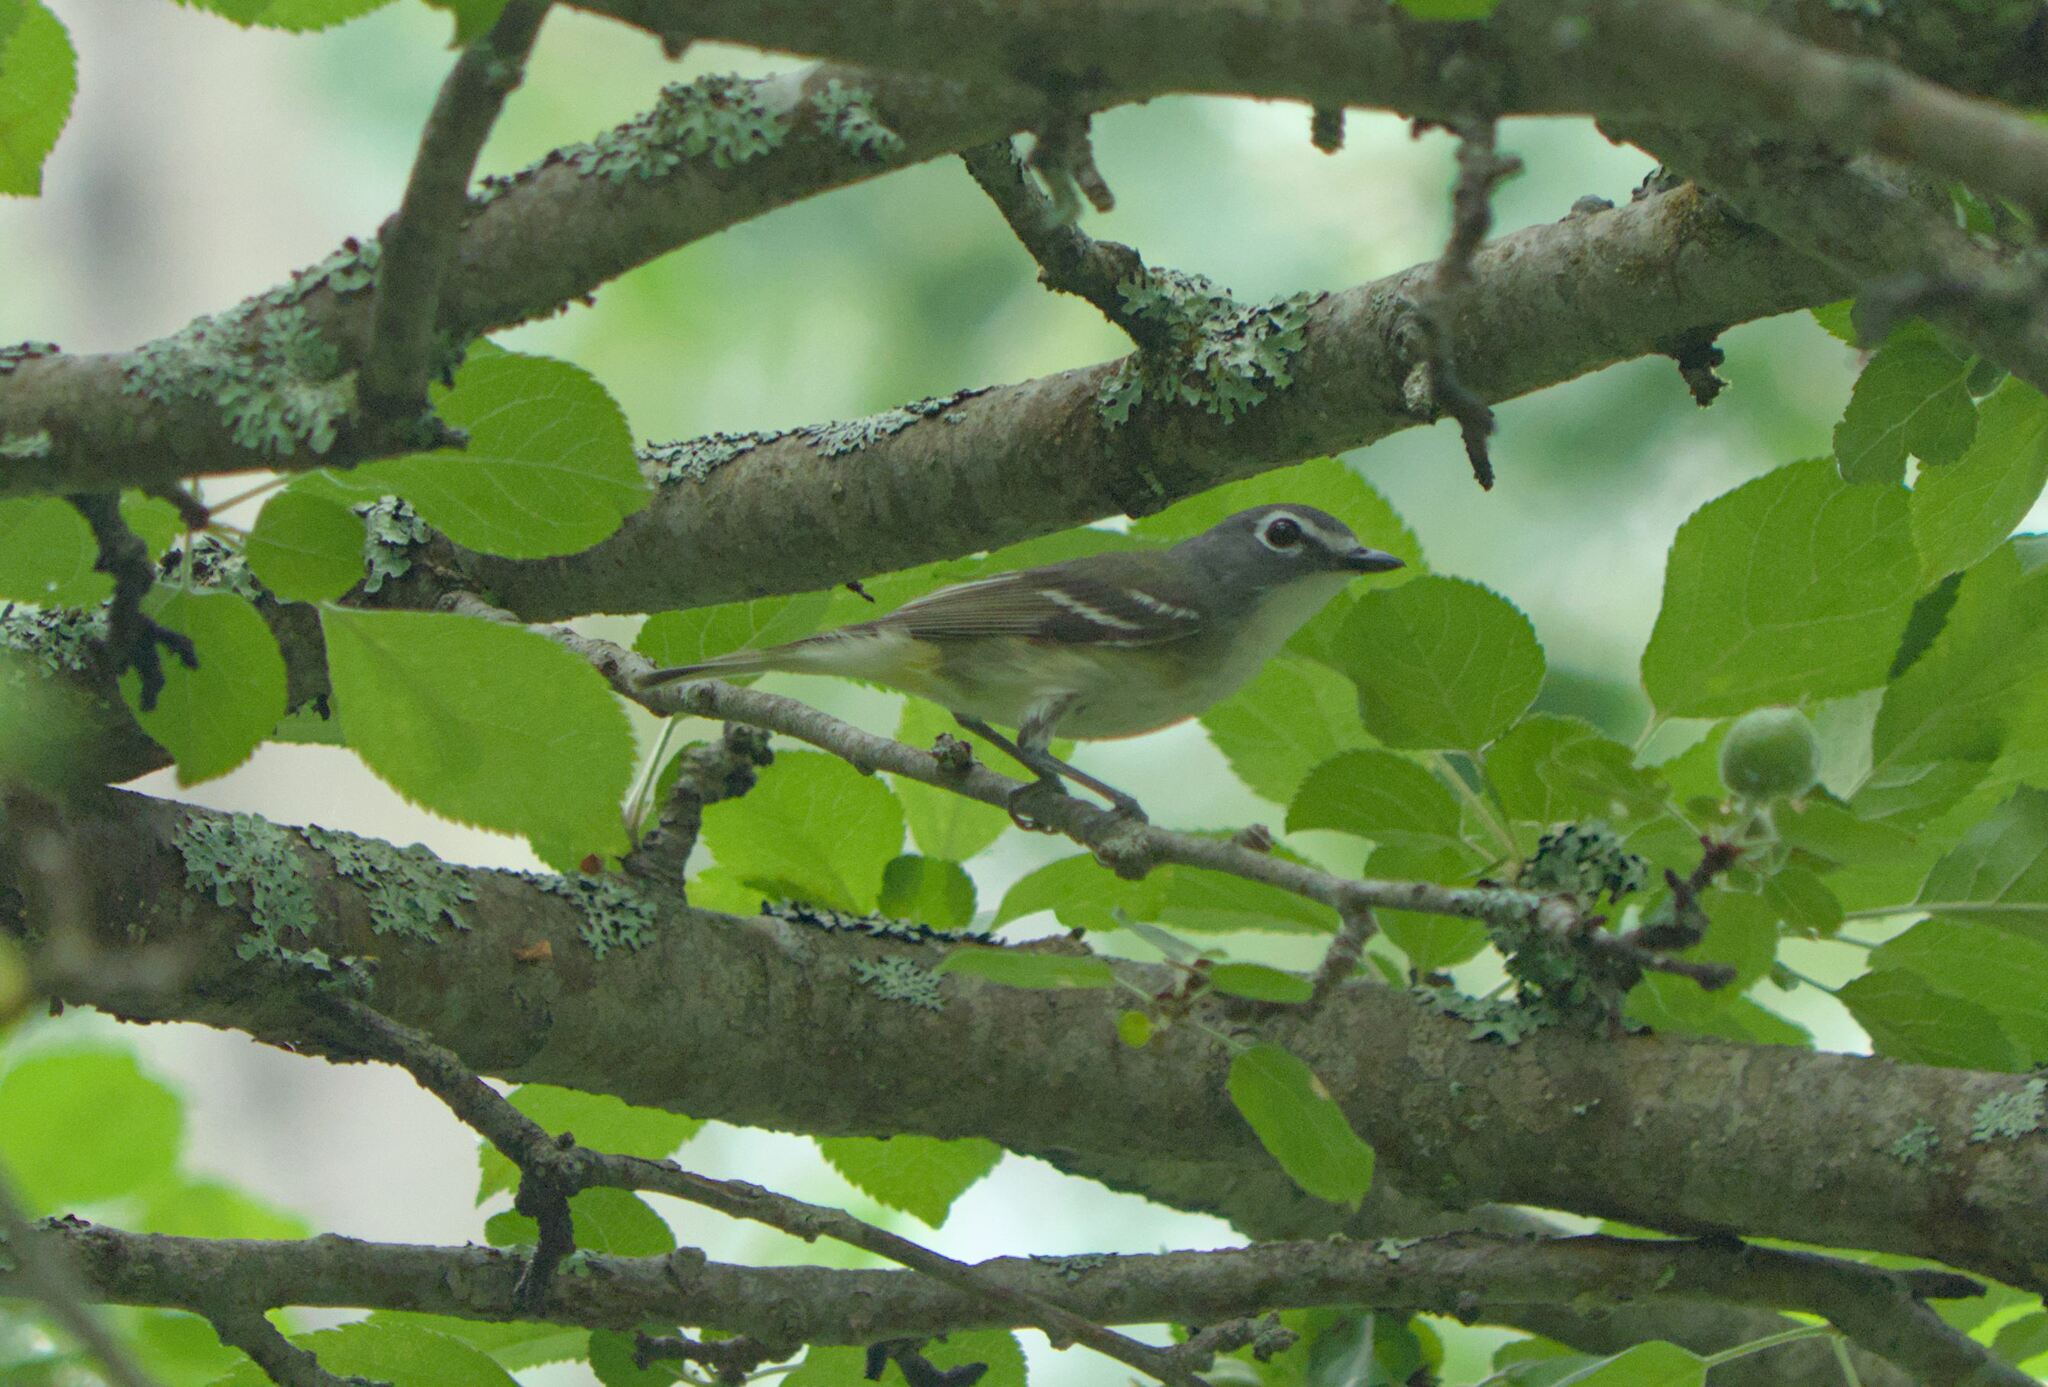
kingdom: Animalia
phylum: Chordata
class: Aves
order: Passeriformes
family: Vireonidae
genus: Vireo
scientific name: Vireo solitarius
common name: Blue-headed vireo
